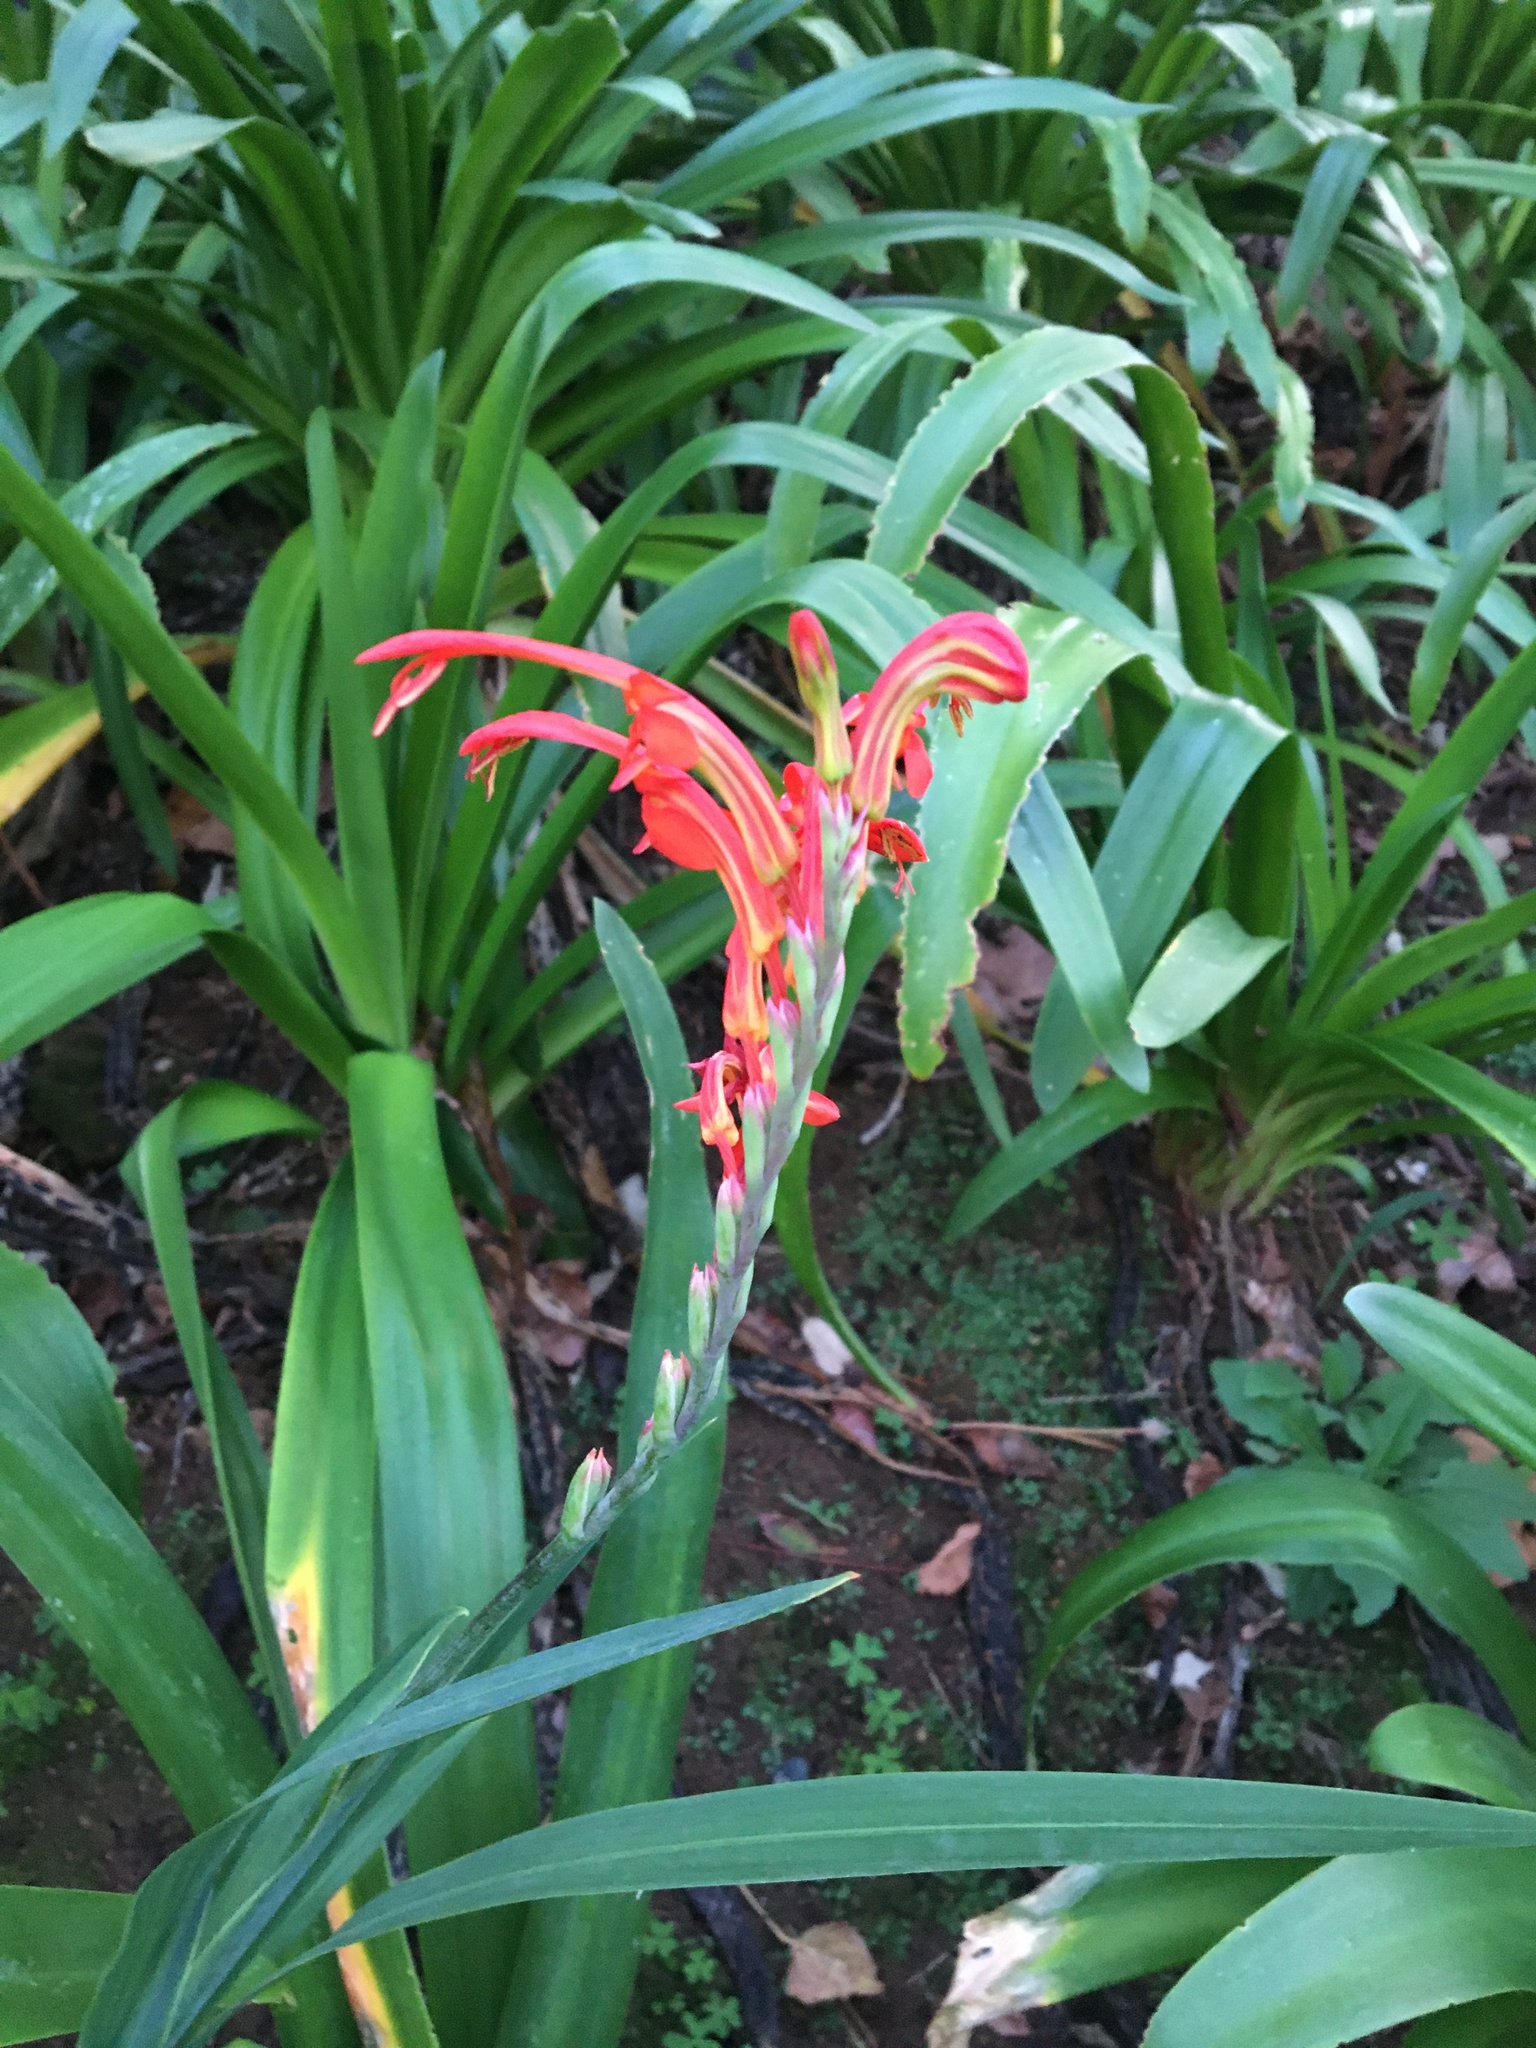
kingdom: Plantae
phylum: Tracheophyta
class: Liliopsida
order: Asparagales
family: Iridaceae
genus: Chasmanthe
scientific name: Chasmanthe aethiopica
